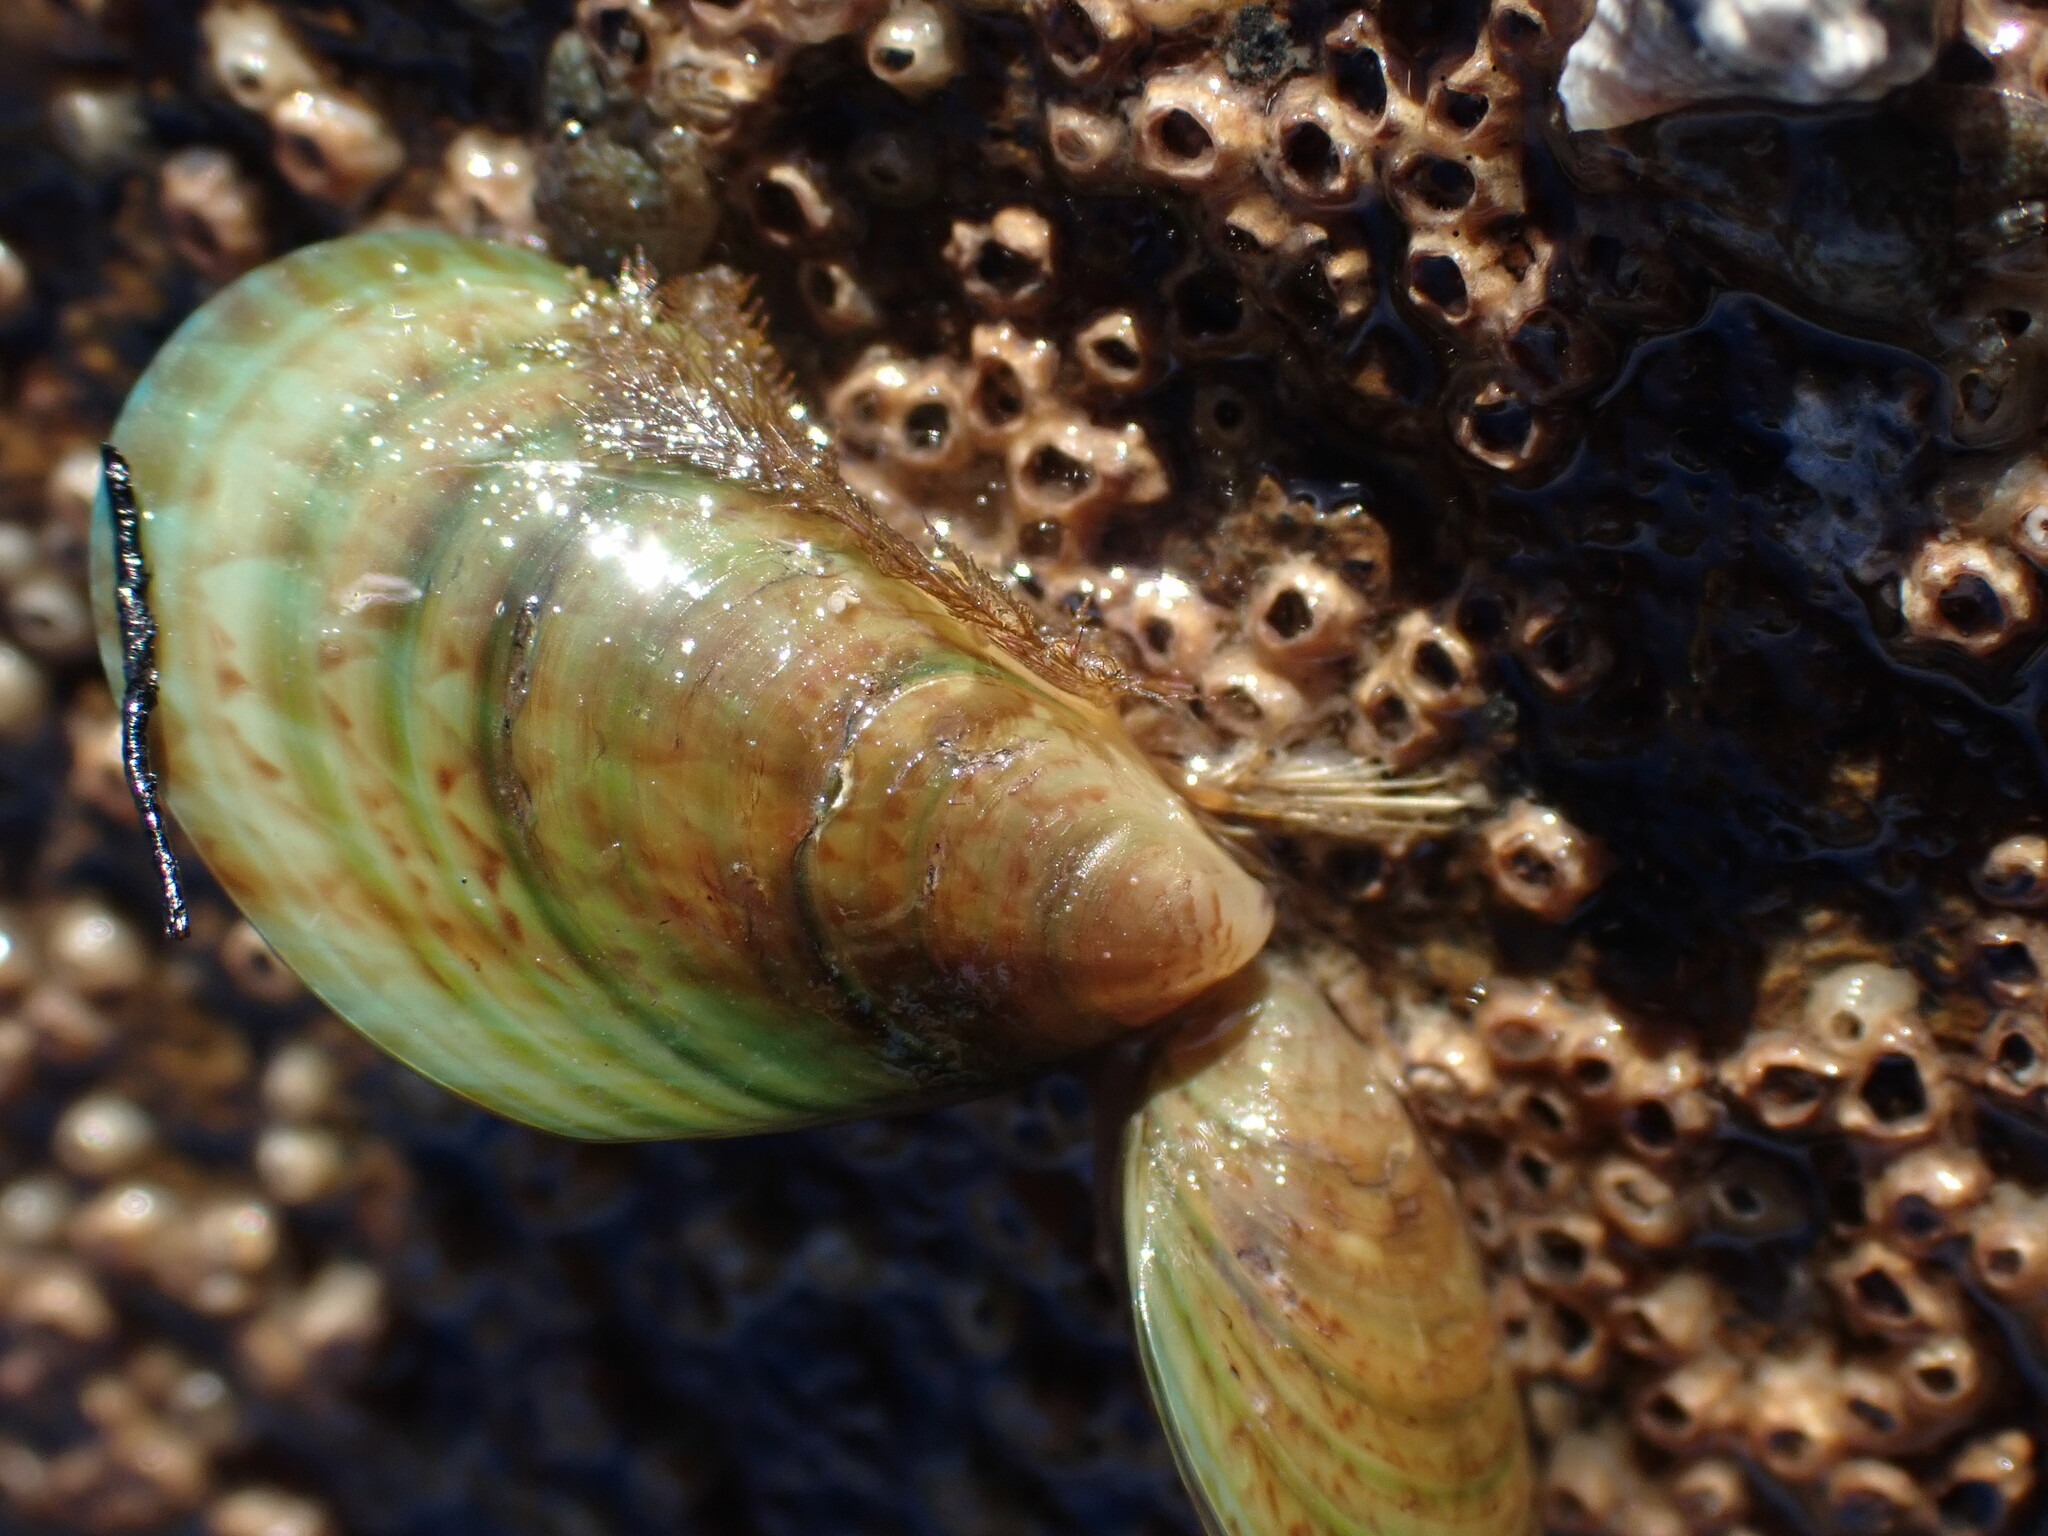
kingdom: Animalia
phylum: Mollusca
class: Bivalvia
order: Mytilida
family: Mytilidae
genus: Perna
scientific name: Perna canaliculus
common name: New zealand greenshelltm
